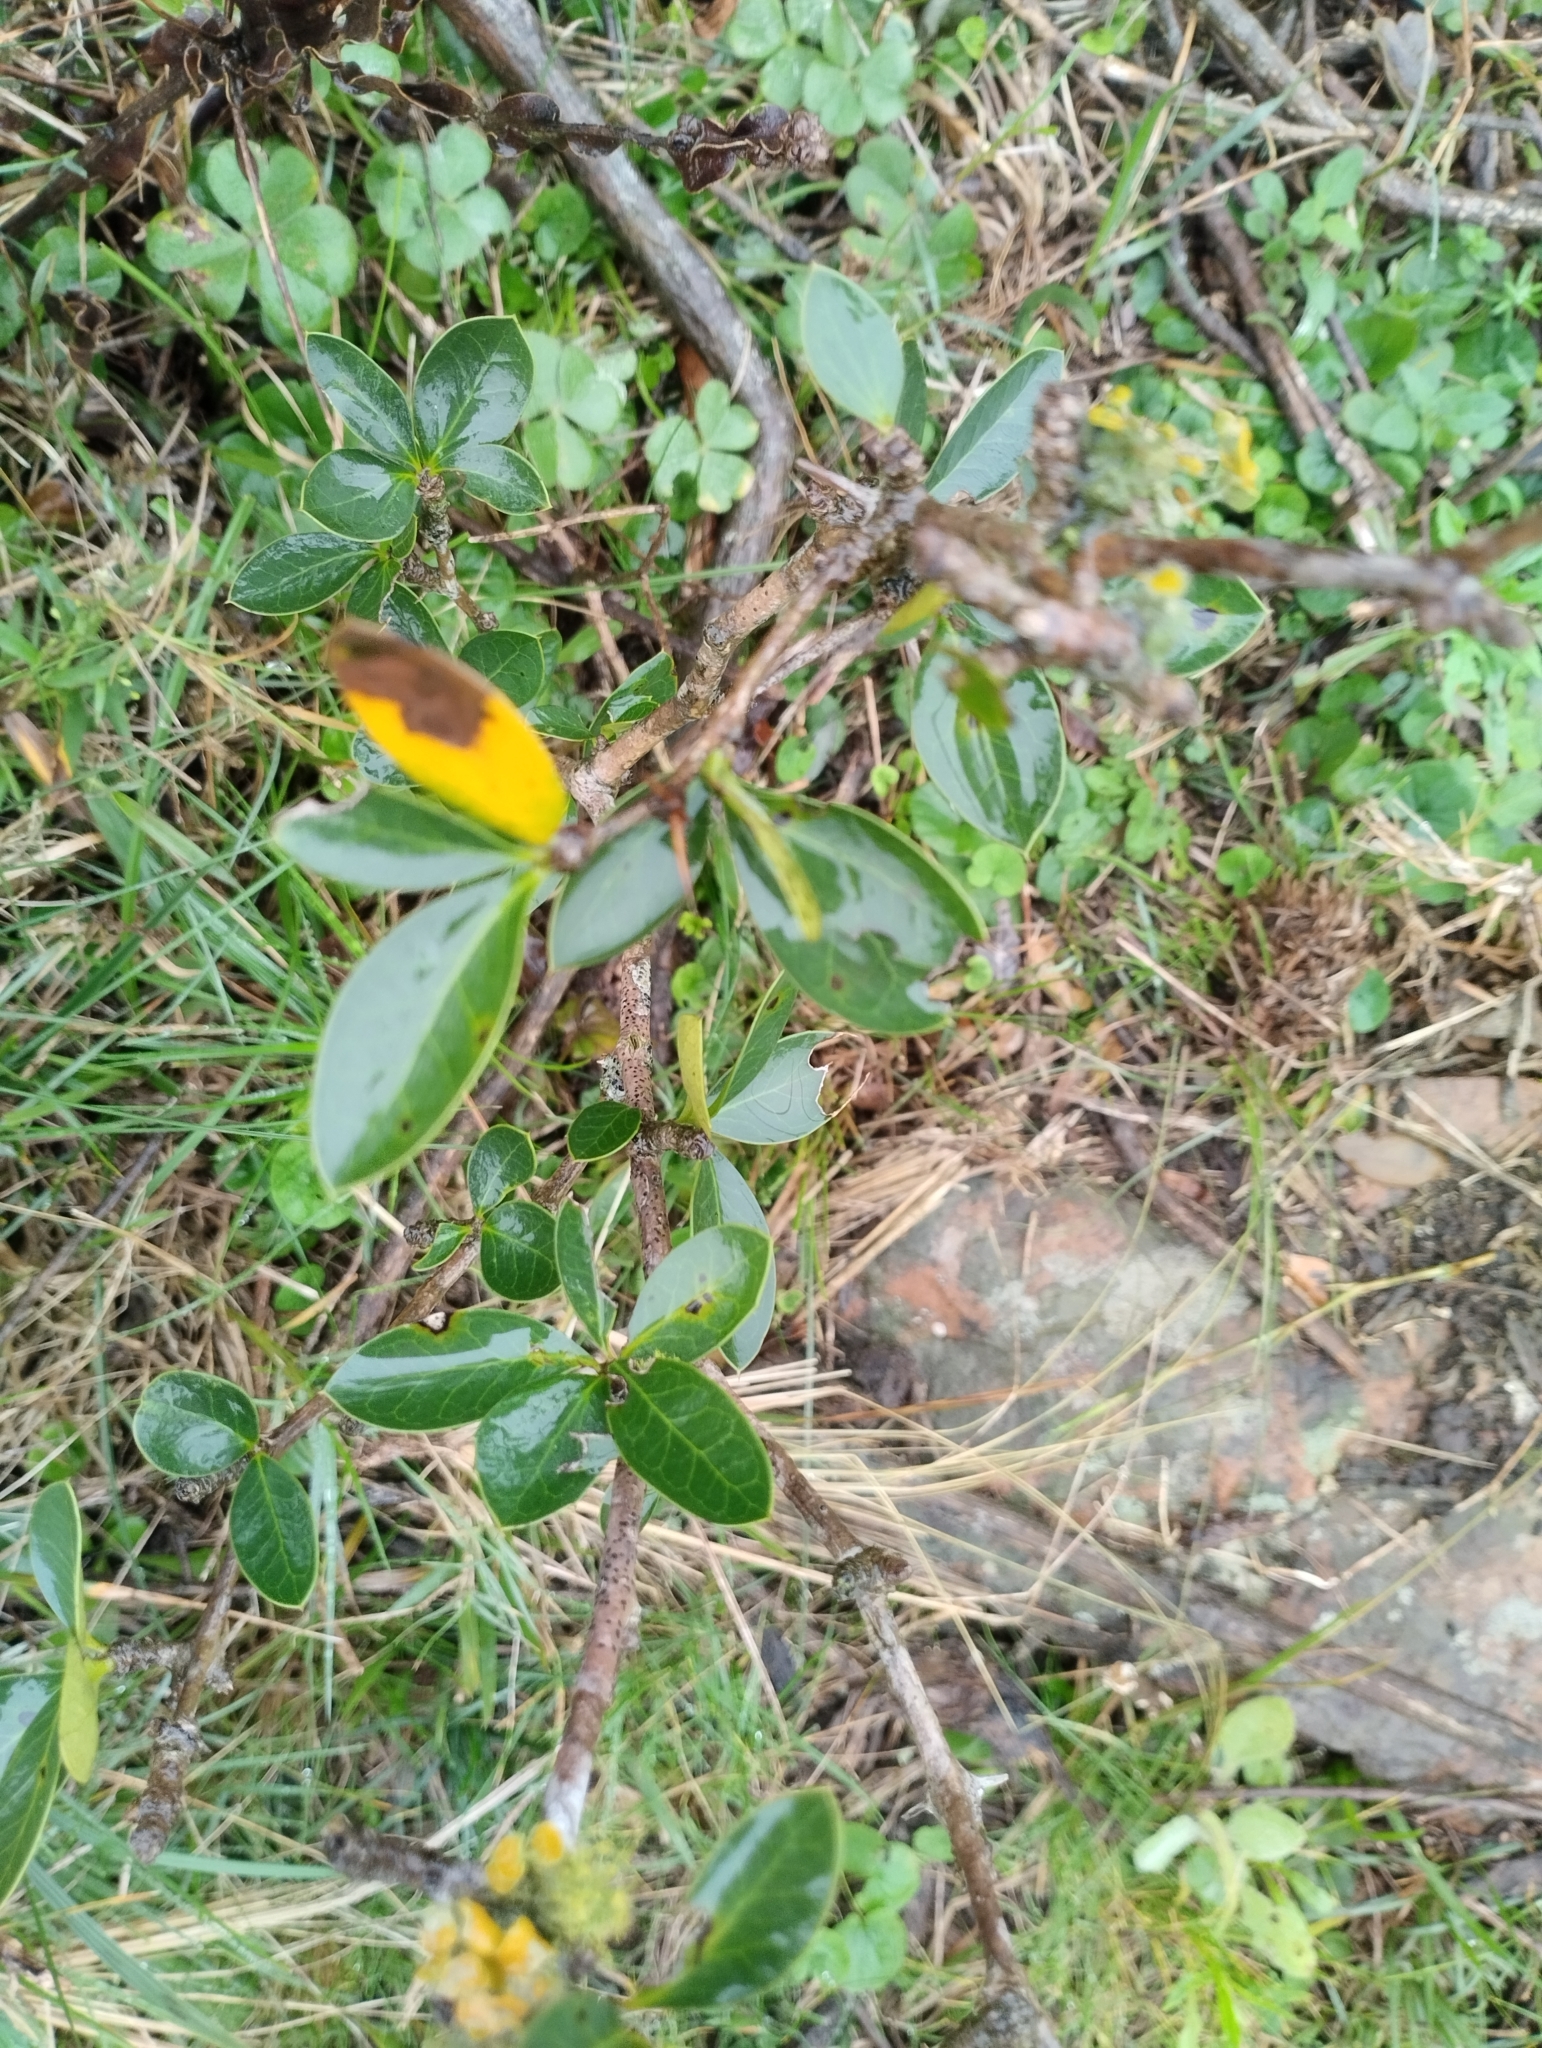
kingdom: Plantae
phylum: Tracheophyta
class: Magnoliopsida
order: Ranunculales
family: Berberidaceae
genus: Berberis
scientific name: Berberis laurina
